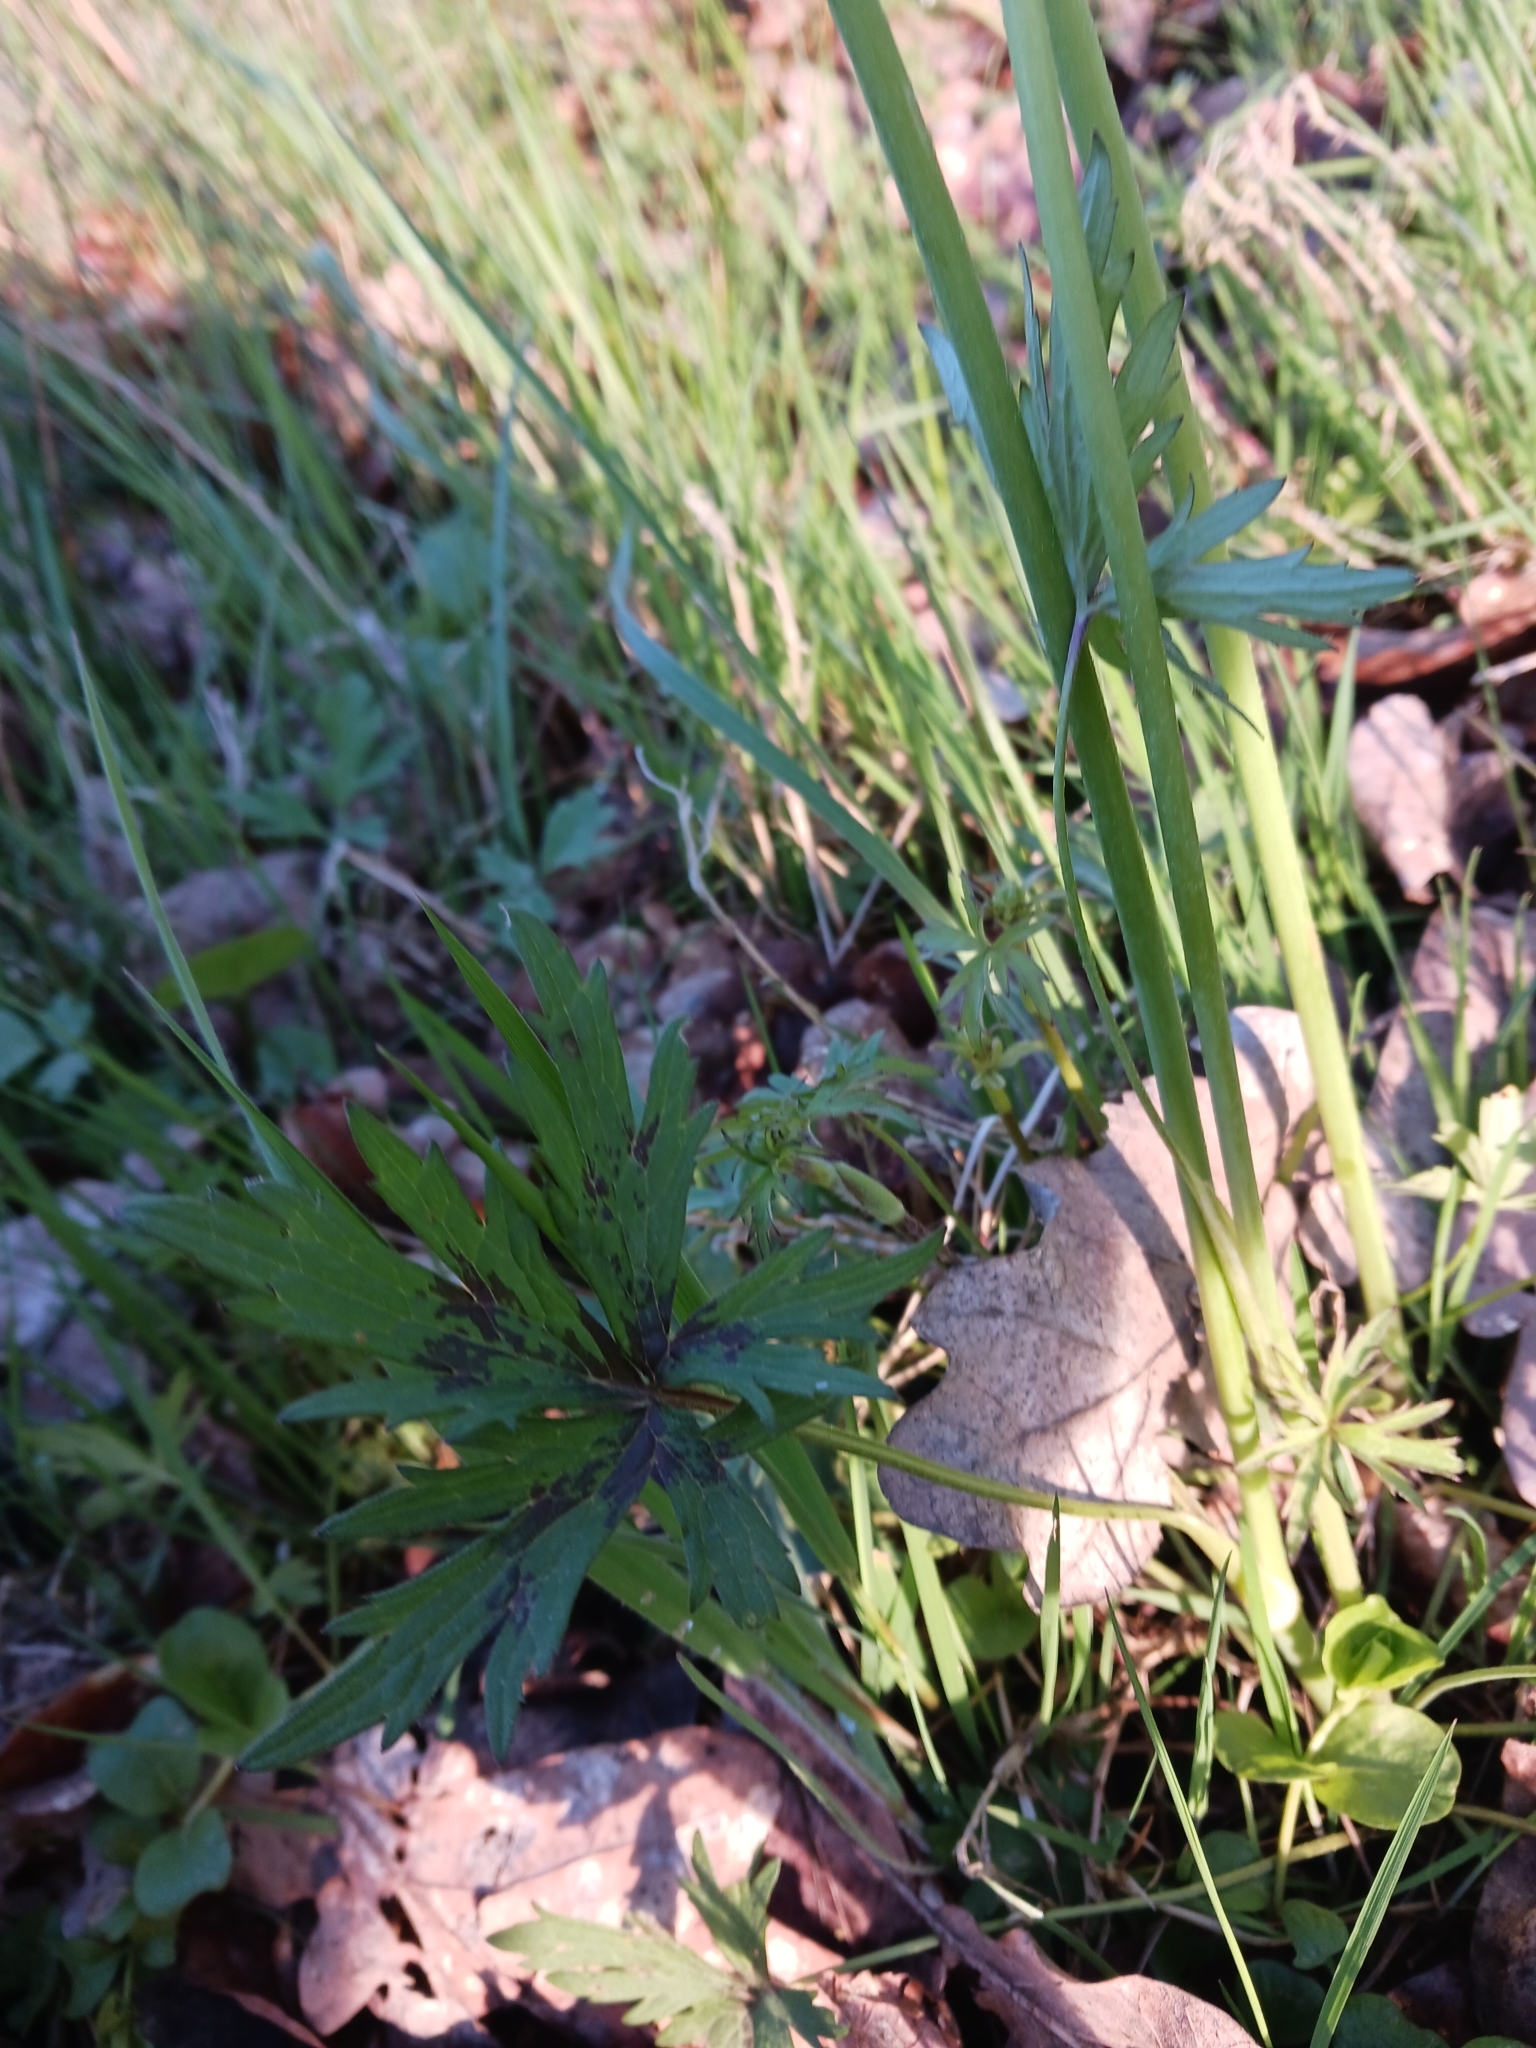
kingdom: Plantae
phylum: Tracheophyta
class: Magnoliopsida
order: Ranunculales
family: Ranunculaceae
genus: Ranunculus
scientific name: Ranunculus acris
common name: Meadow buttercup
